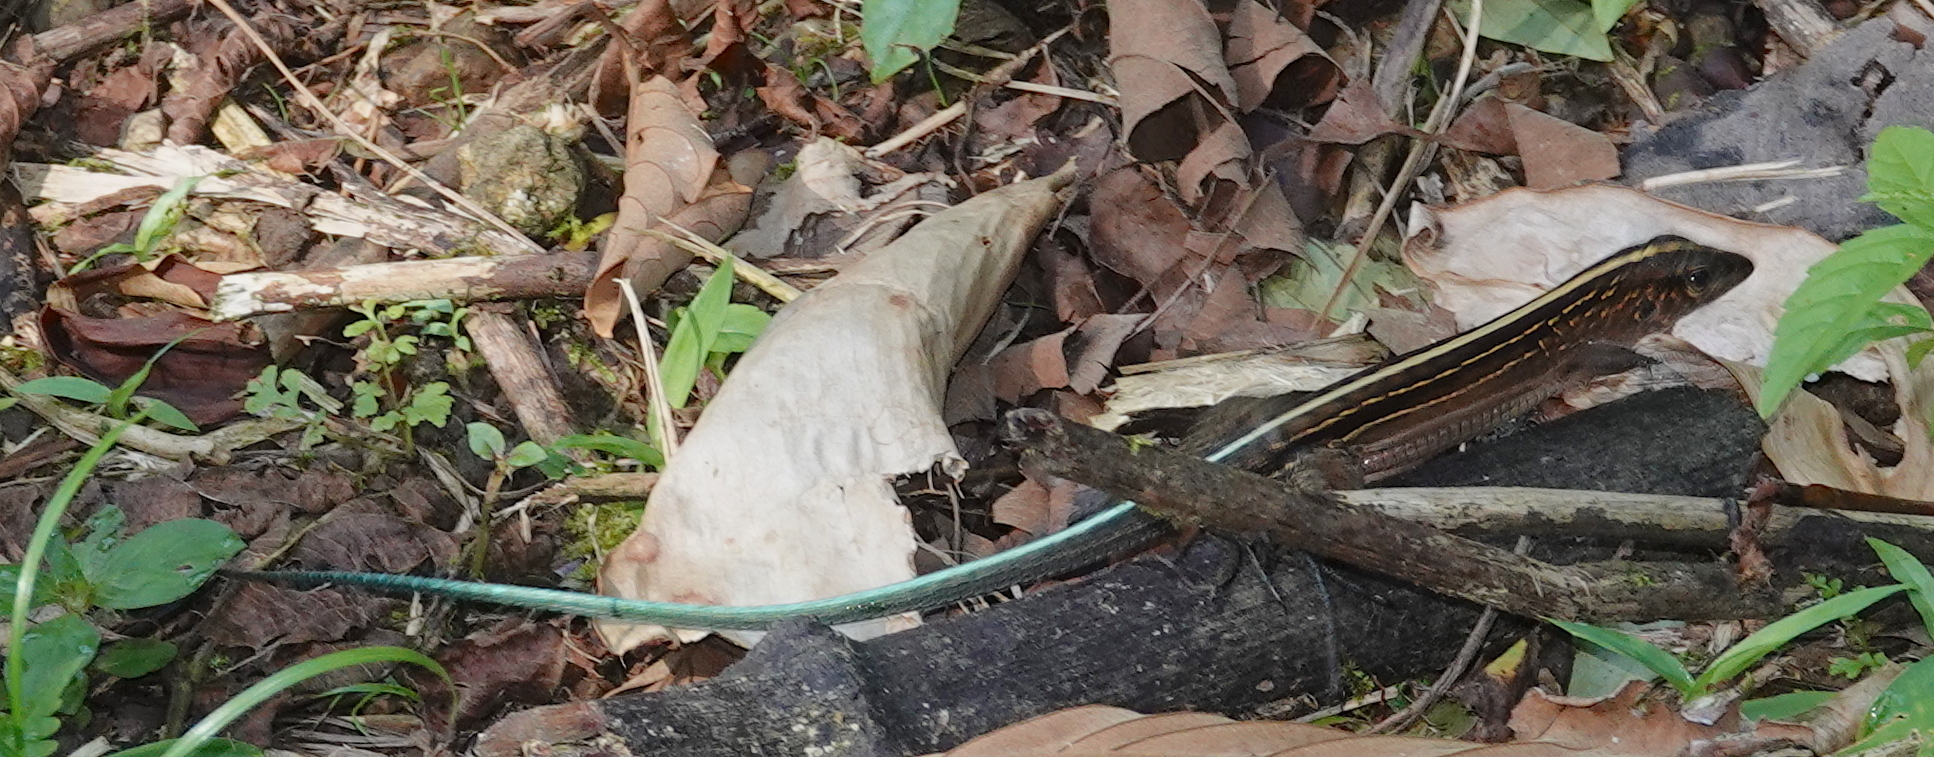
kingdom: Animalia
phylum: Chordata
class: Squamata
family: Teiidae
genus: Holcosus
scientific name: Holcosus festivus
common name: Middle american ameiva
